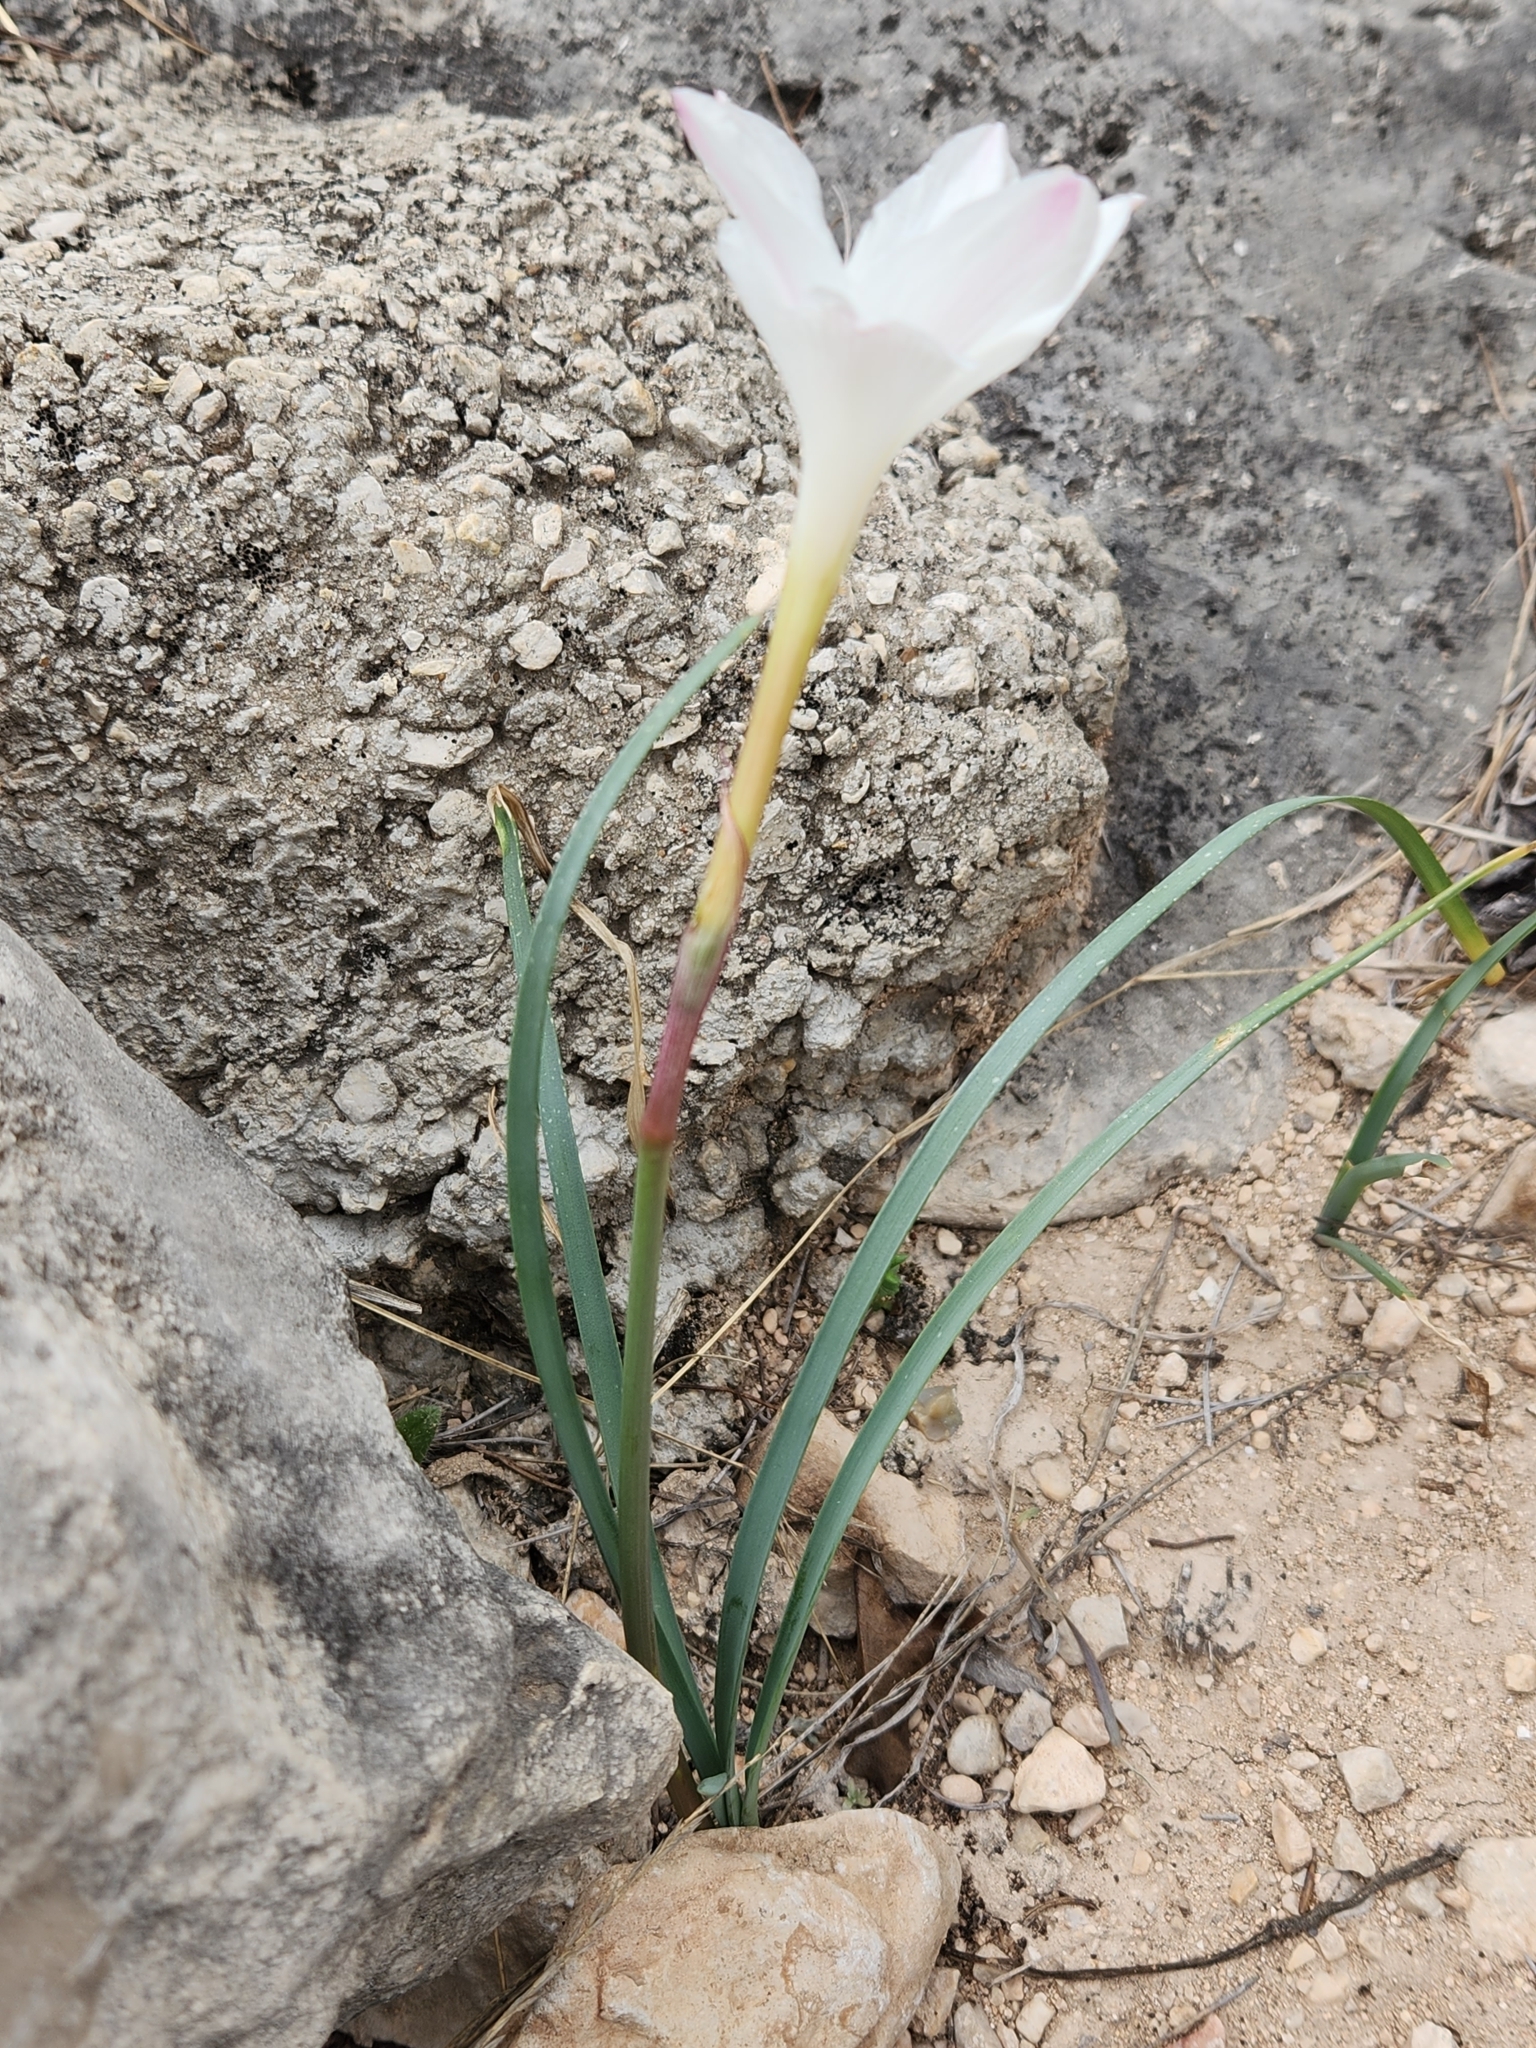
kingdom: Plantae
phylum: Tracheophyta
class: Liliopsida
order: Asparagales
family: Amaryllidaceae
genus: Zephyranthes
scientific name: Zephyranthes drummondii
